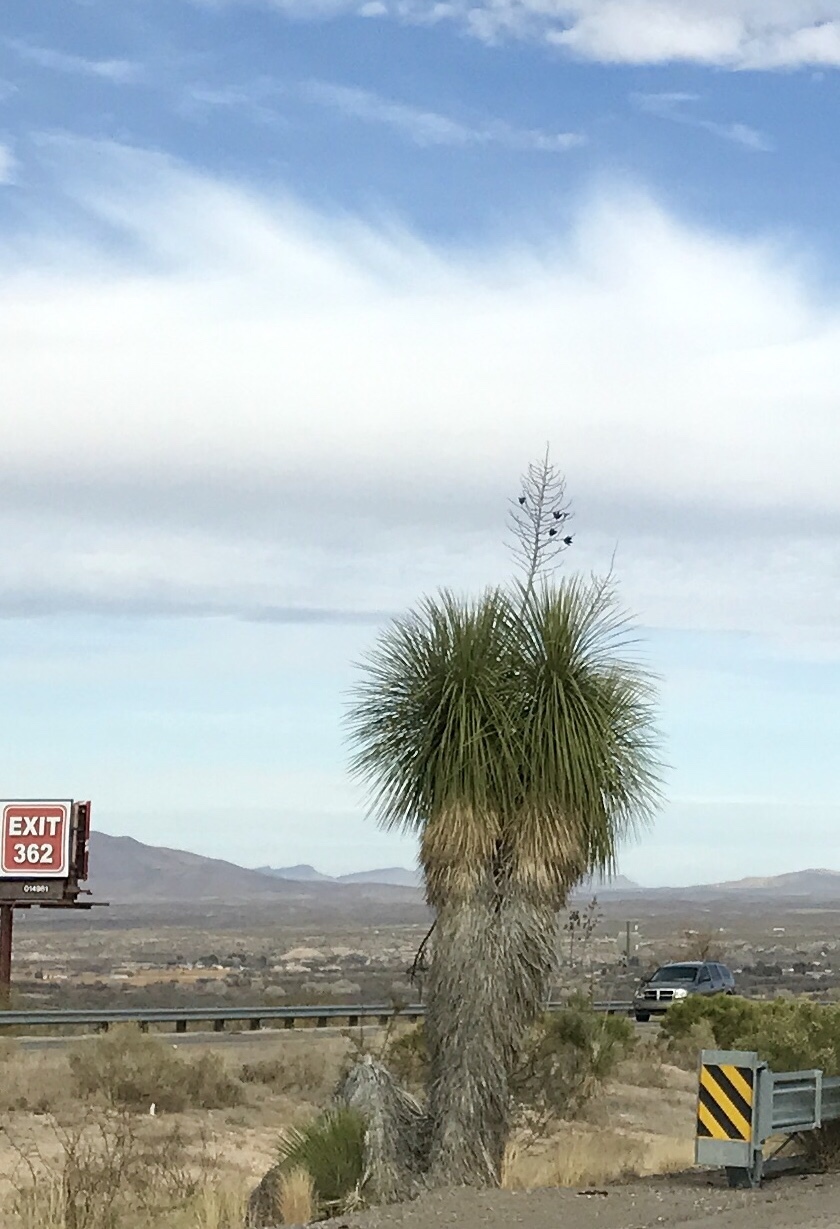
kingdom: Plantae
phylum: Tracheophyta
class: Liliopsida
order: Asparagales
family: Asparagaceae
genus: Yucca
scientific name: Yucca elata
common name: Palmella
